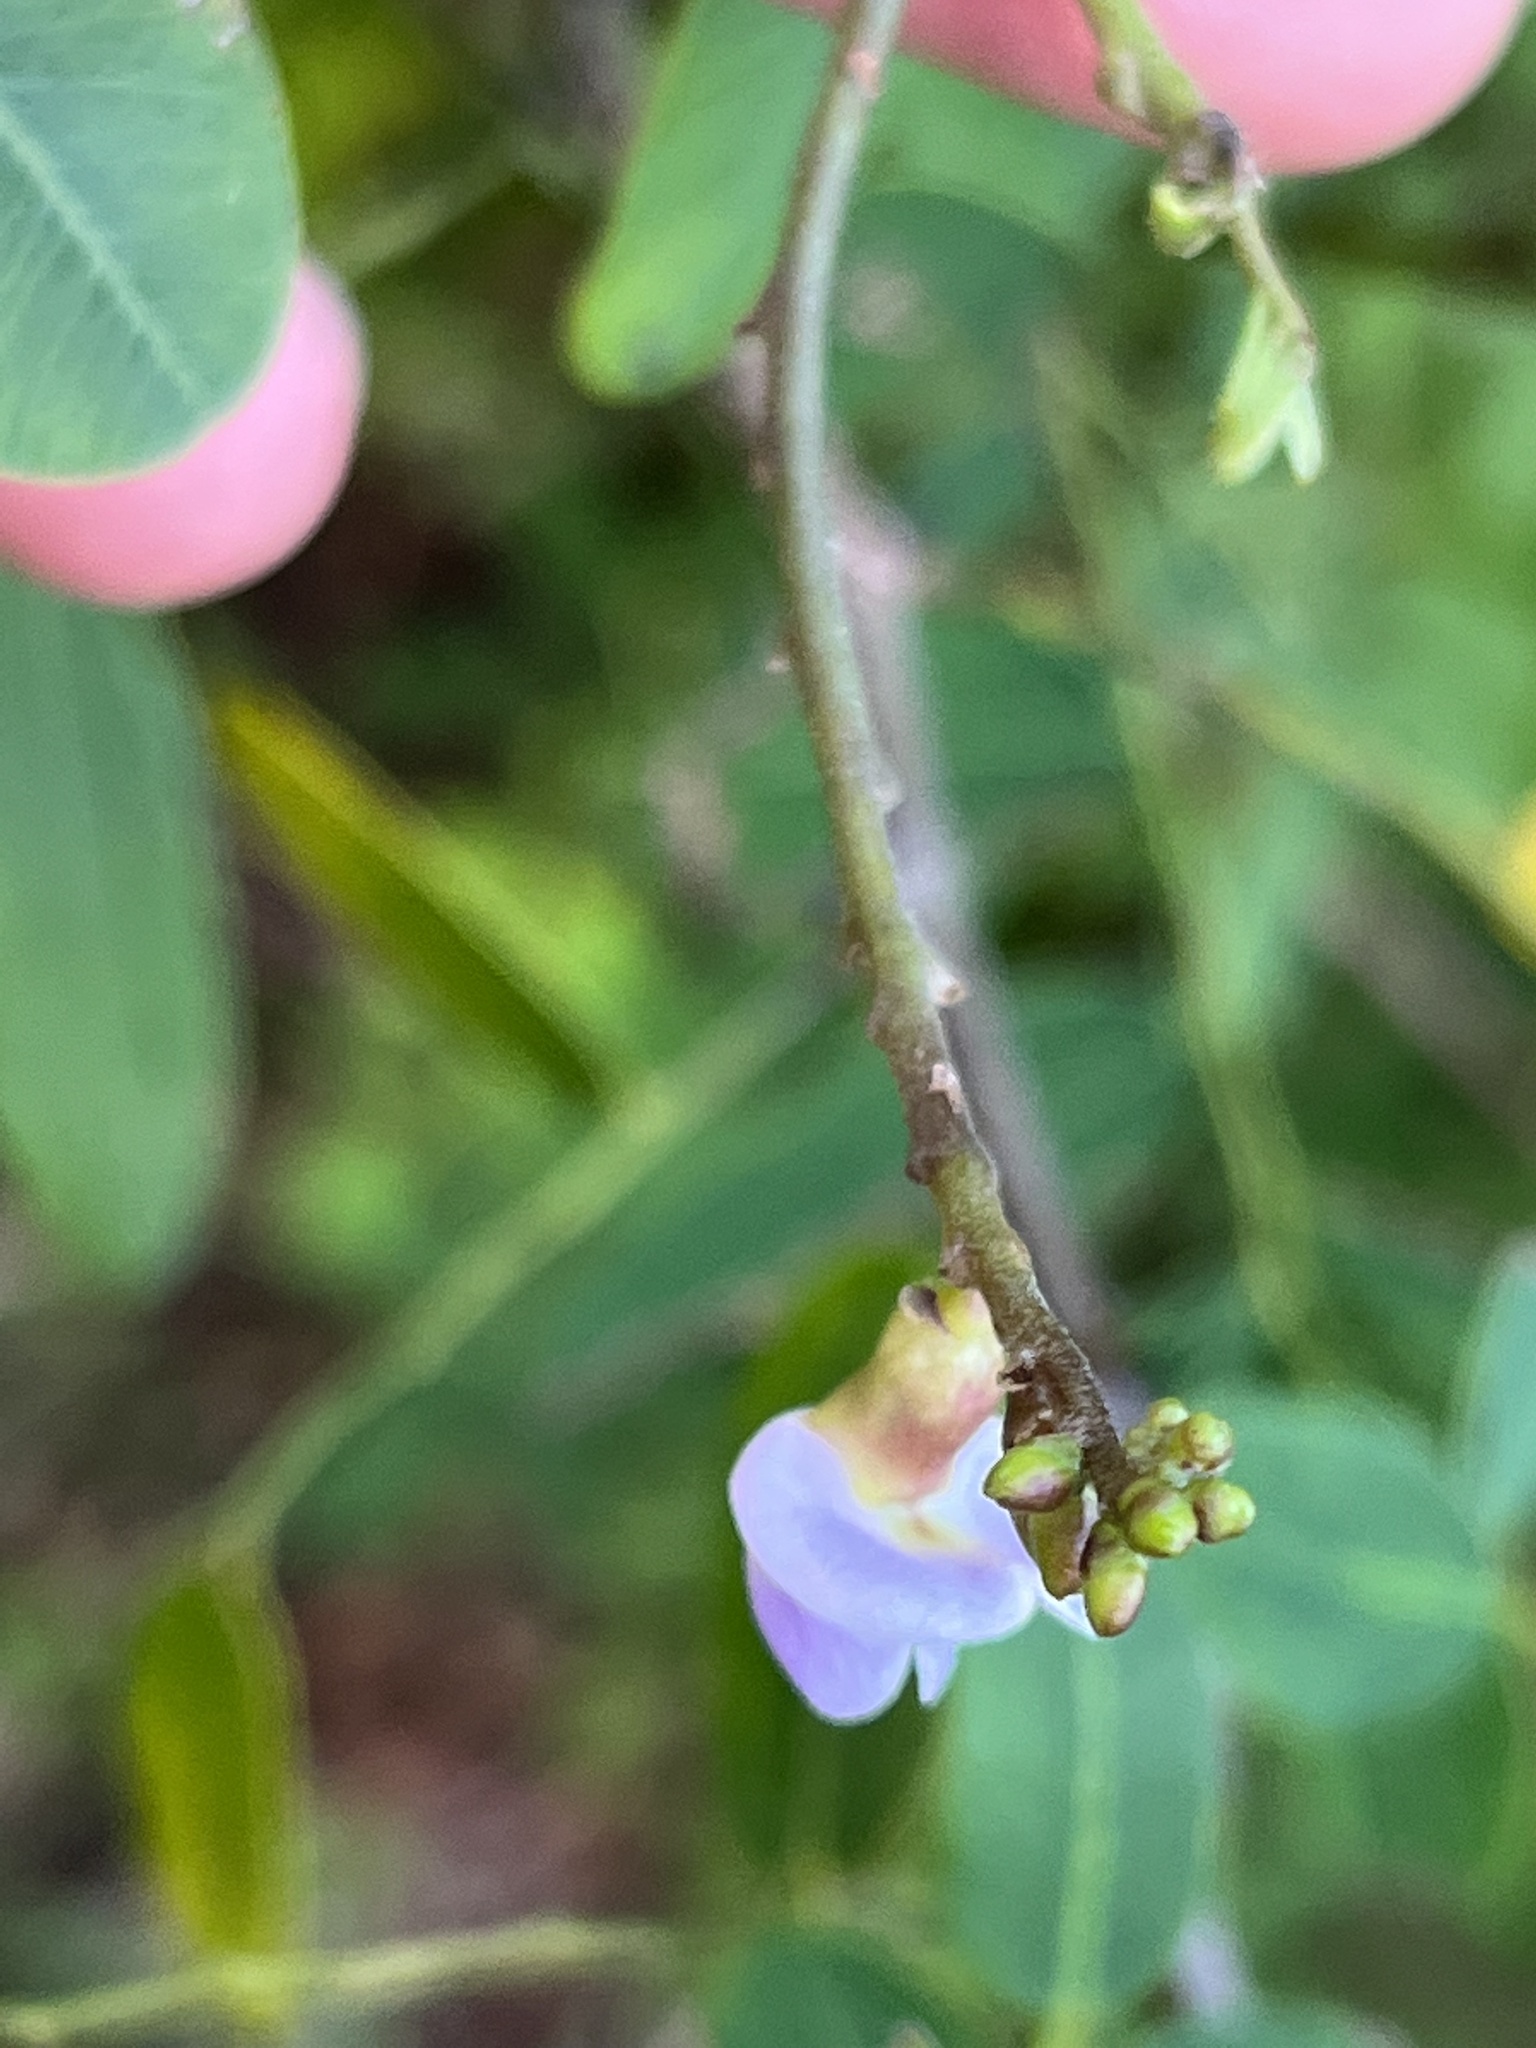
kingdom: Plantae
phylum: Tracheophyta
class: Magnoliopsida
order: Fabales
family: Fabaceae
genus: Machaerium
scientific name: Machaerium lunatum
